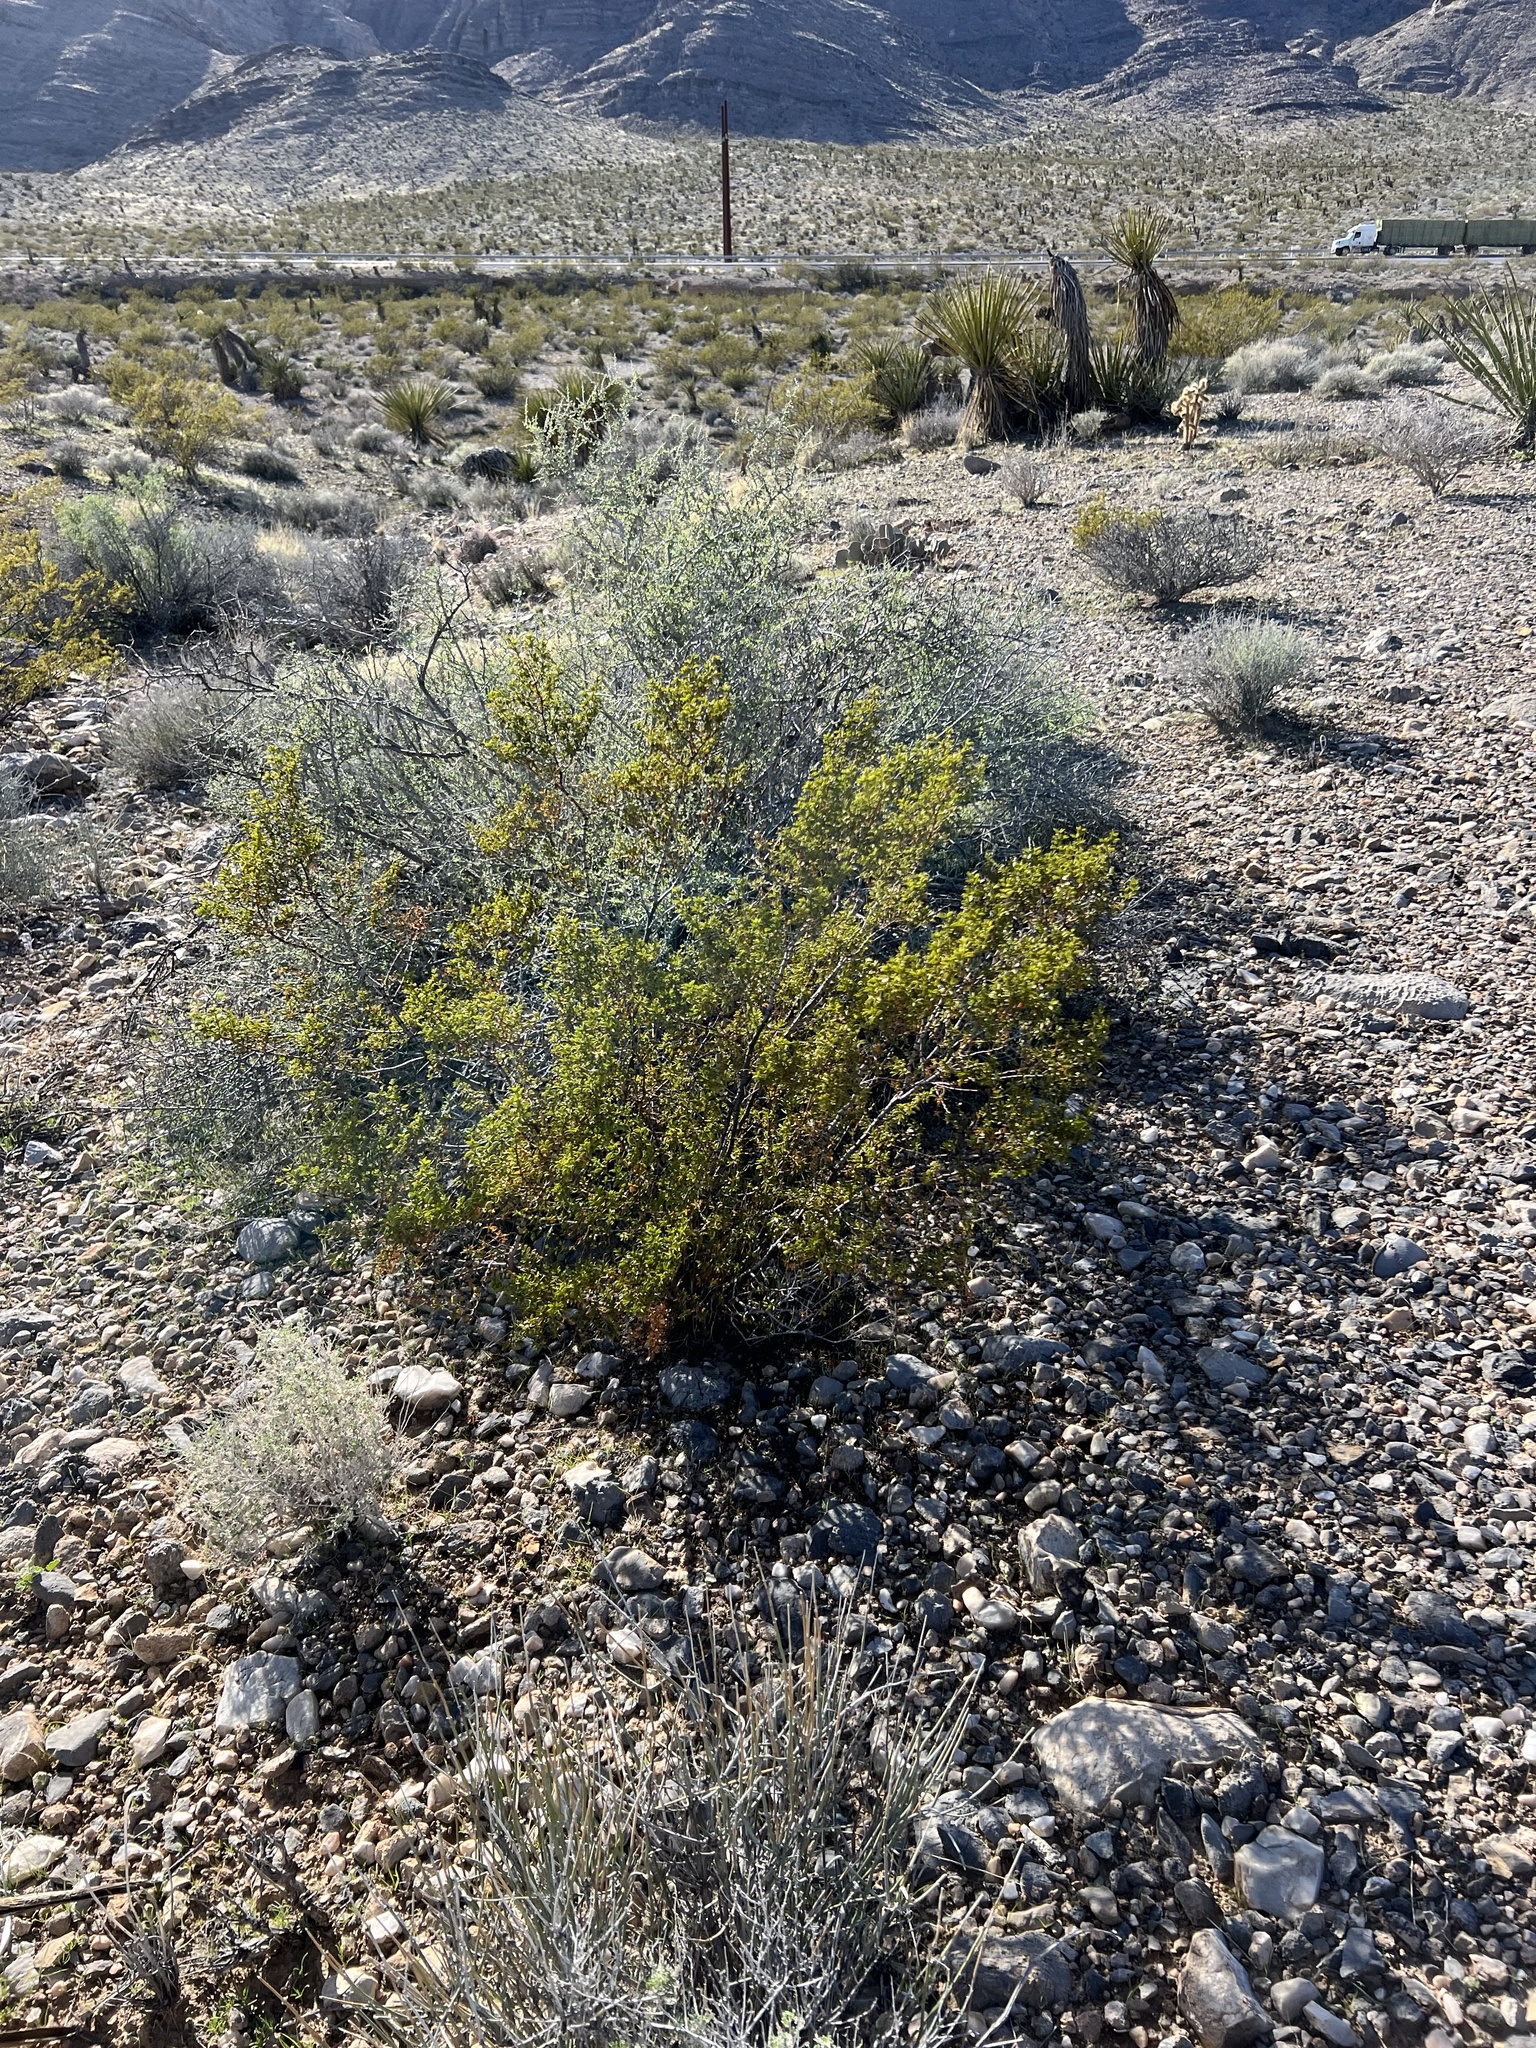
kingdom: Plantae
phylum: Tracheophyta
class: Magnoliopsida
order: Zygophyllales
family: Zygophyllaceae
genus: Larrea
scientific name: Larrea tridentata
